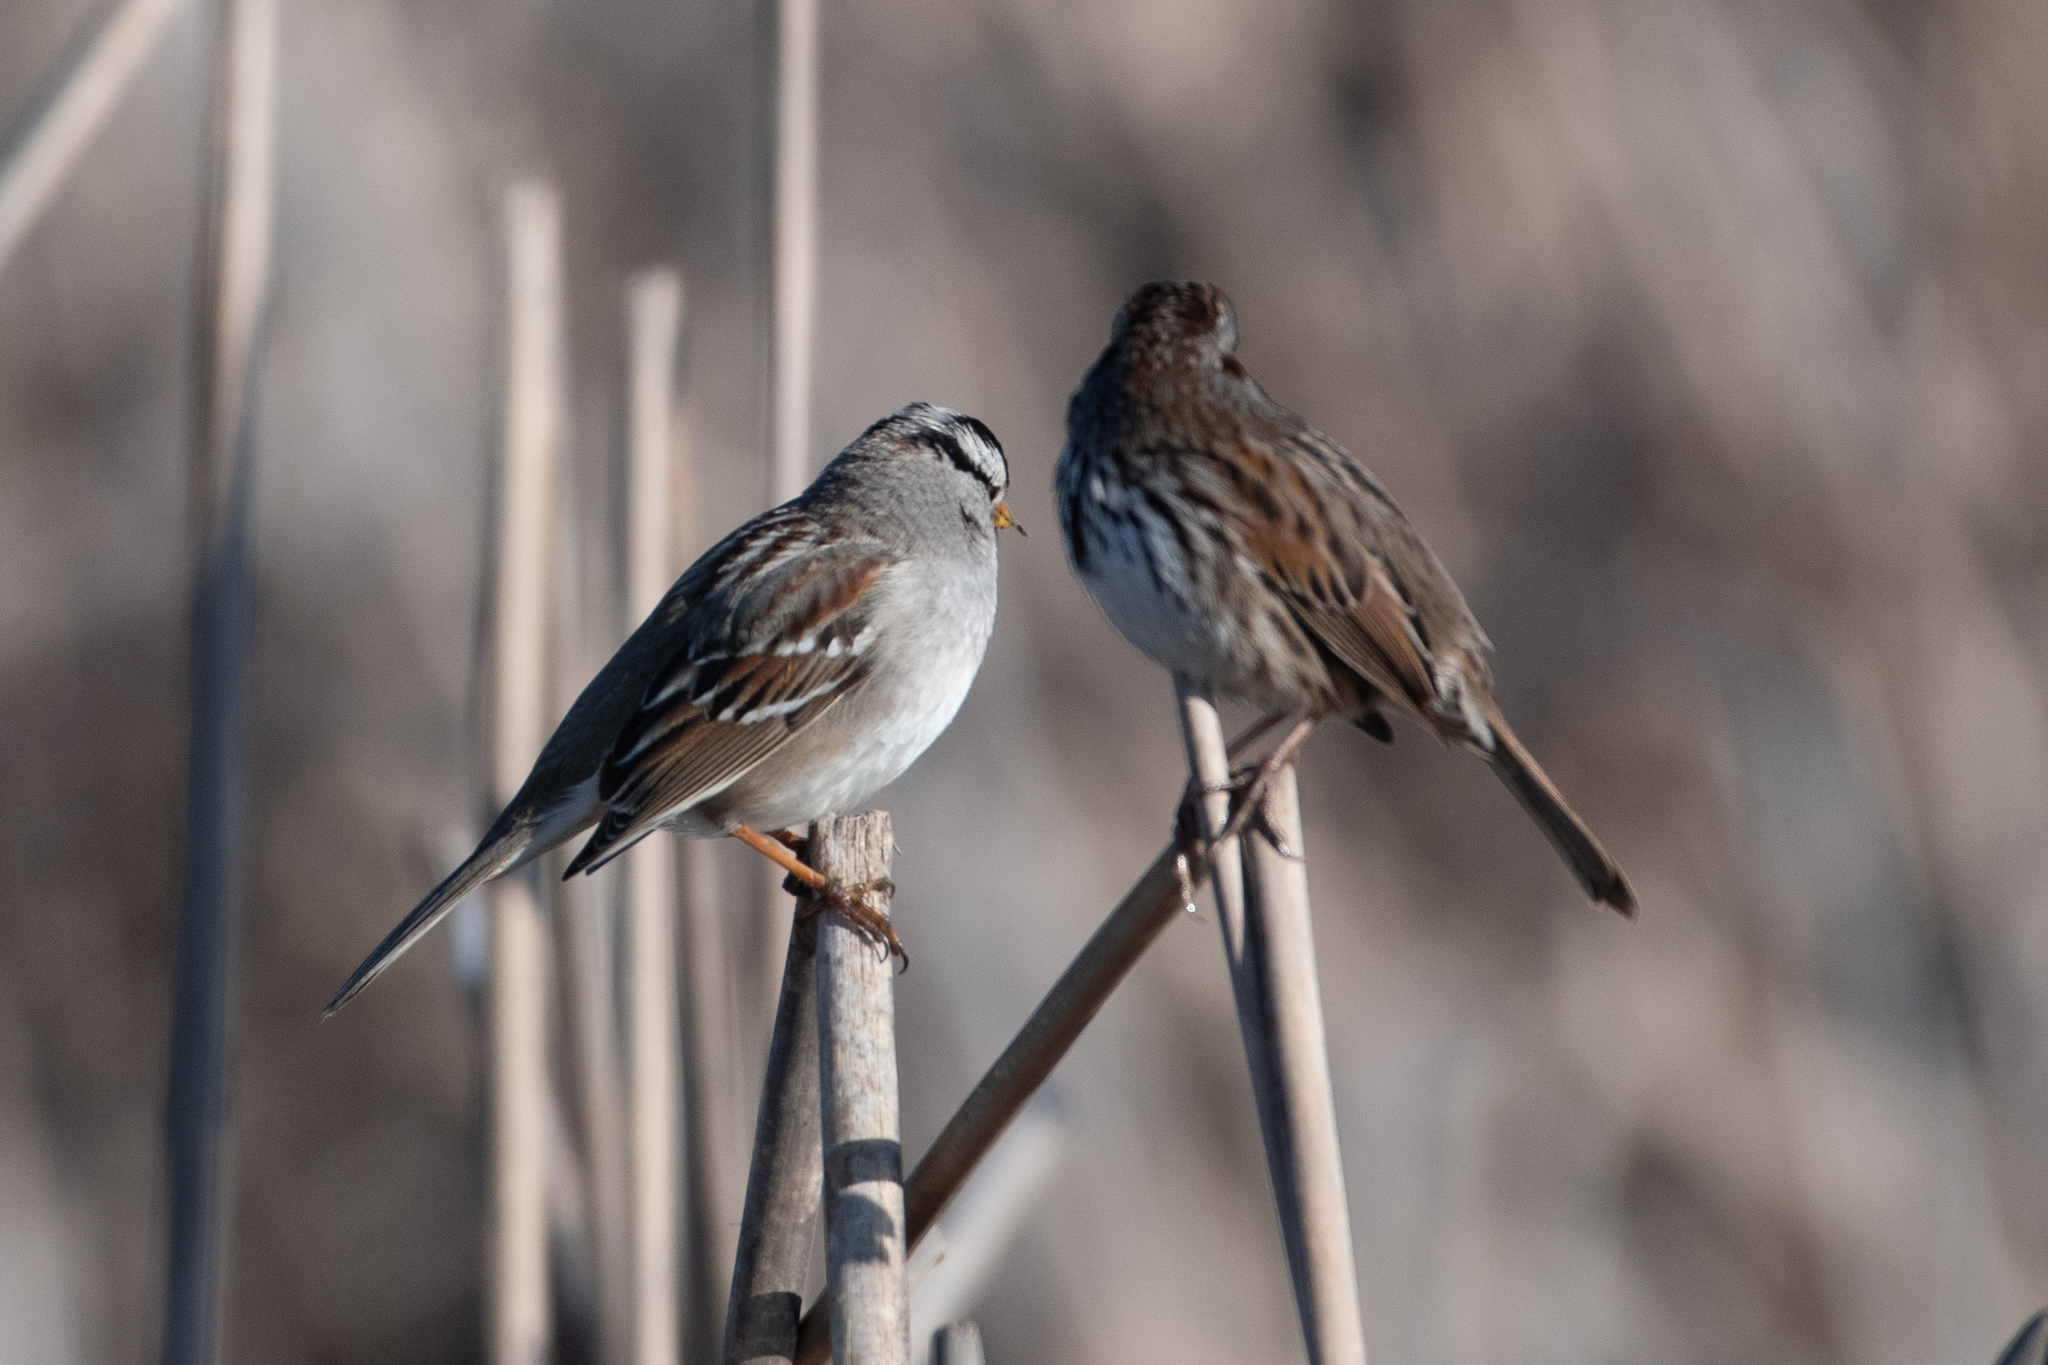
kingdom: Animalia
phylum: Chordata
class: Aves
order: Passeriformes
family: Passerellidae
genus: Zonotrichia
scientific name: Zonotrichia leucophrys
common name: White-crowned sparrow
